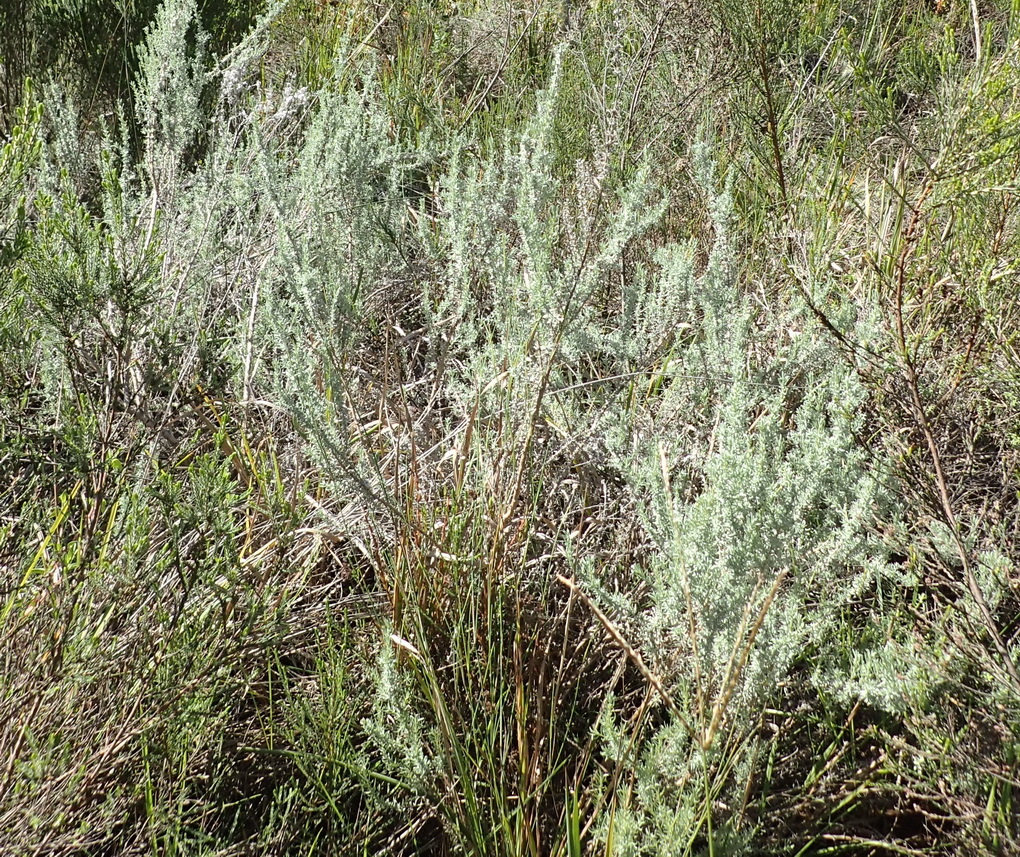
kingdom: Plantae
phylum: Tracheophyta
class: Magnoliopsida
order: Asterales
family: Asteraceae
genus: Eriocephalus
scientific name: Eriocephalus racemosus
